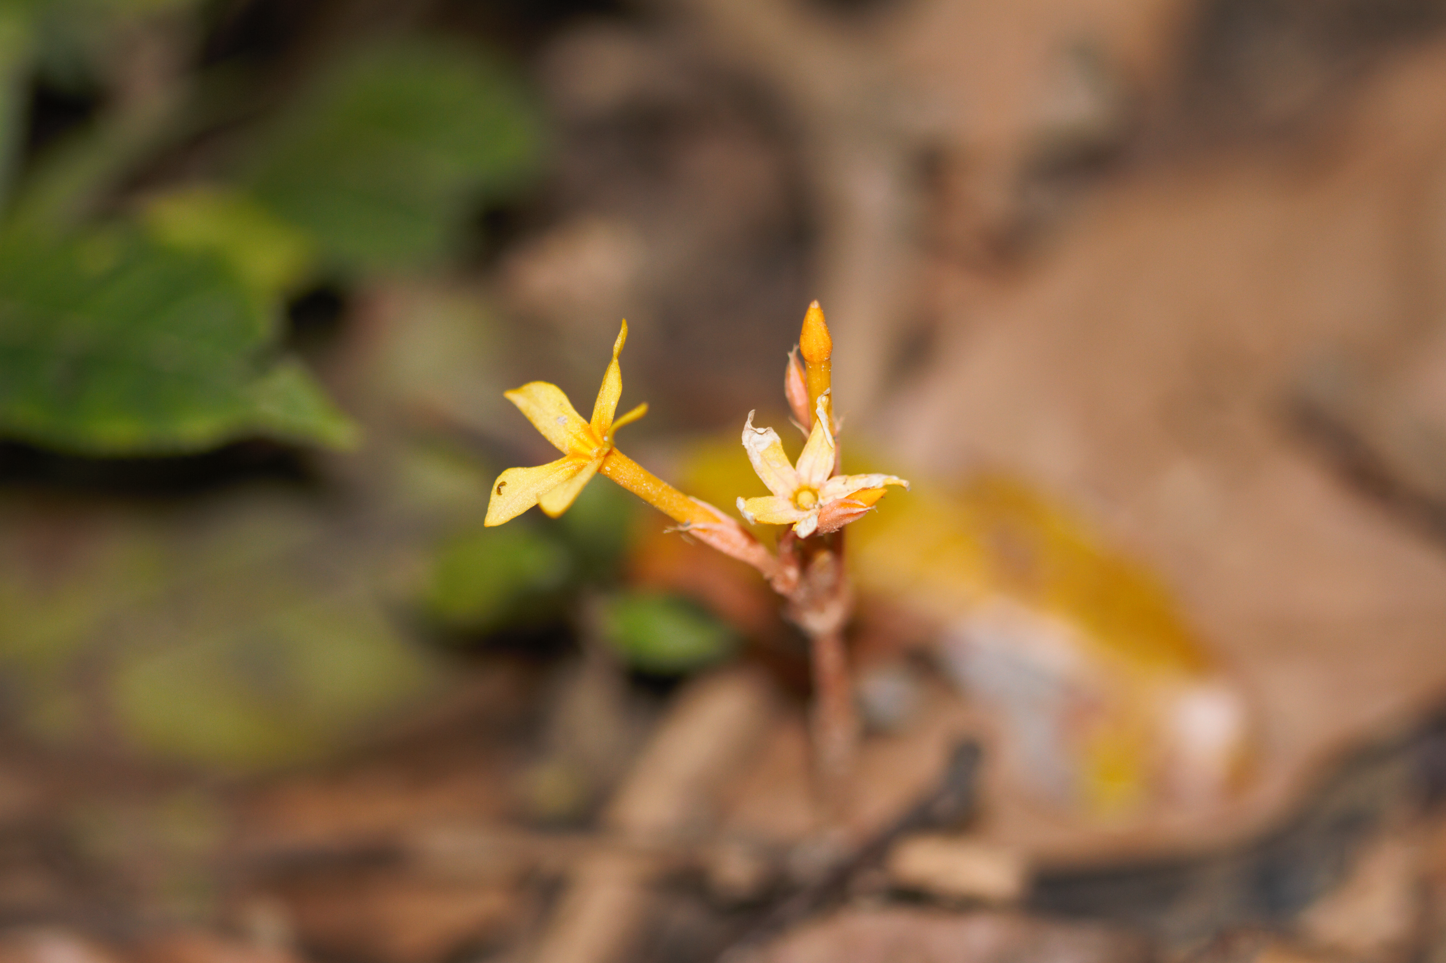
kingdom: Plantae
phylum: Tracheophyta
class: Magnoliopsida
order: Gentianales
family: Gentianaceae
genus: Voyria
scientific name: Voyria aurantiaca
